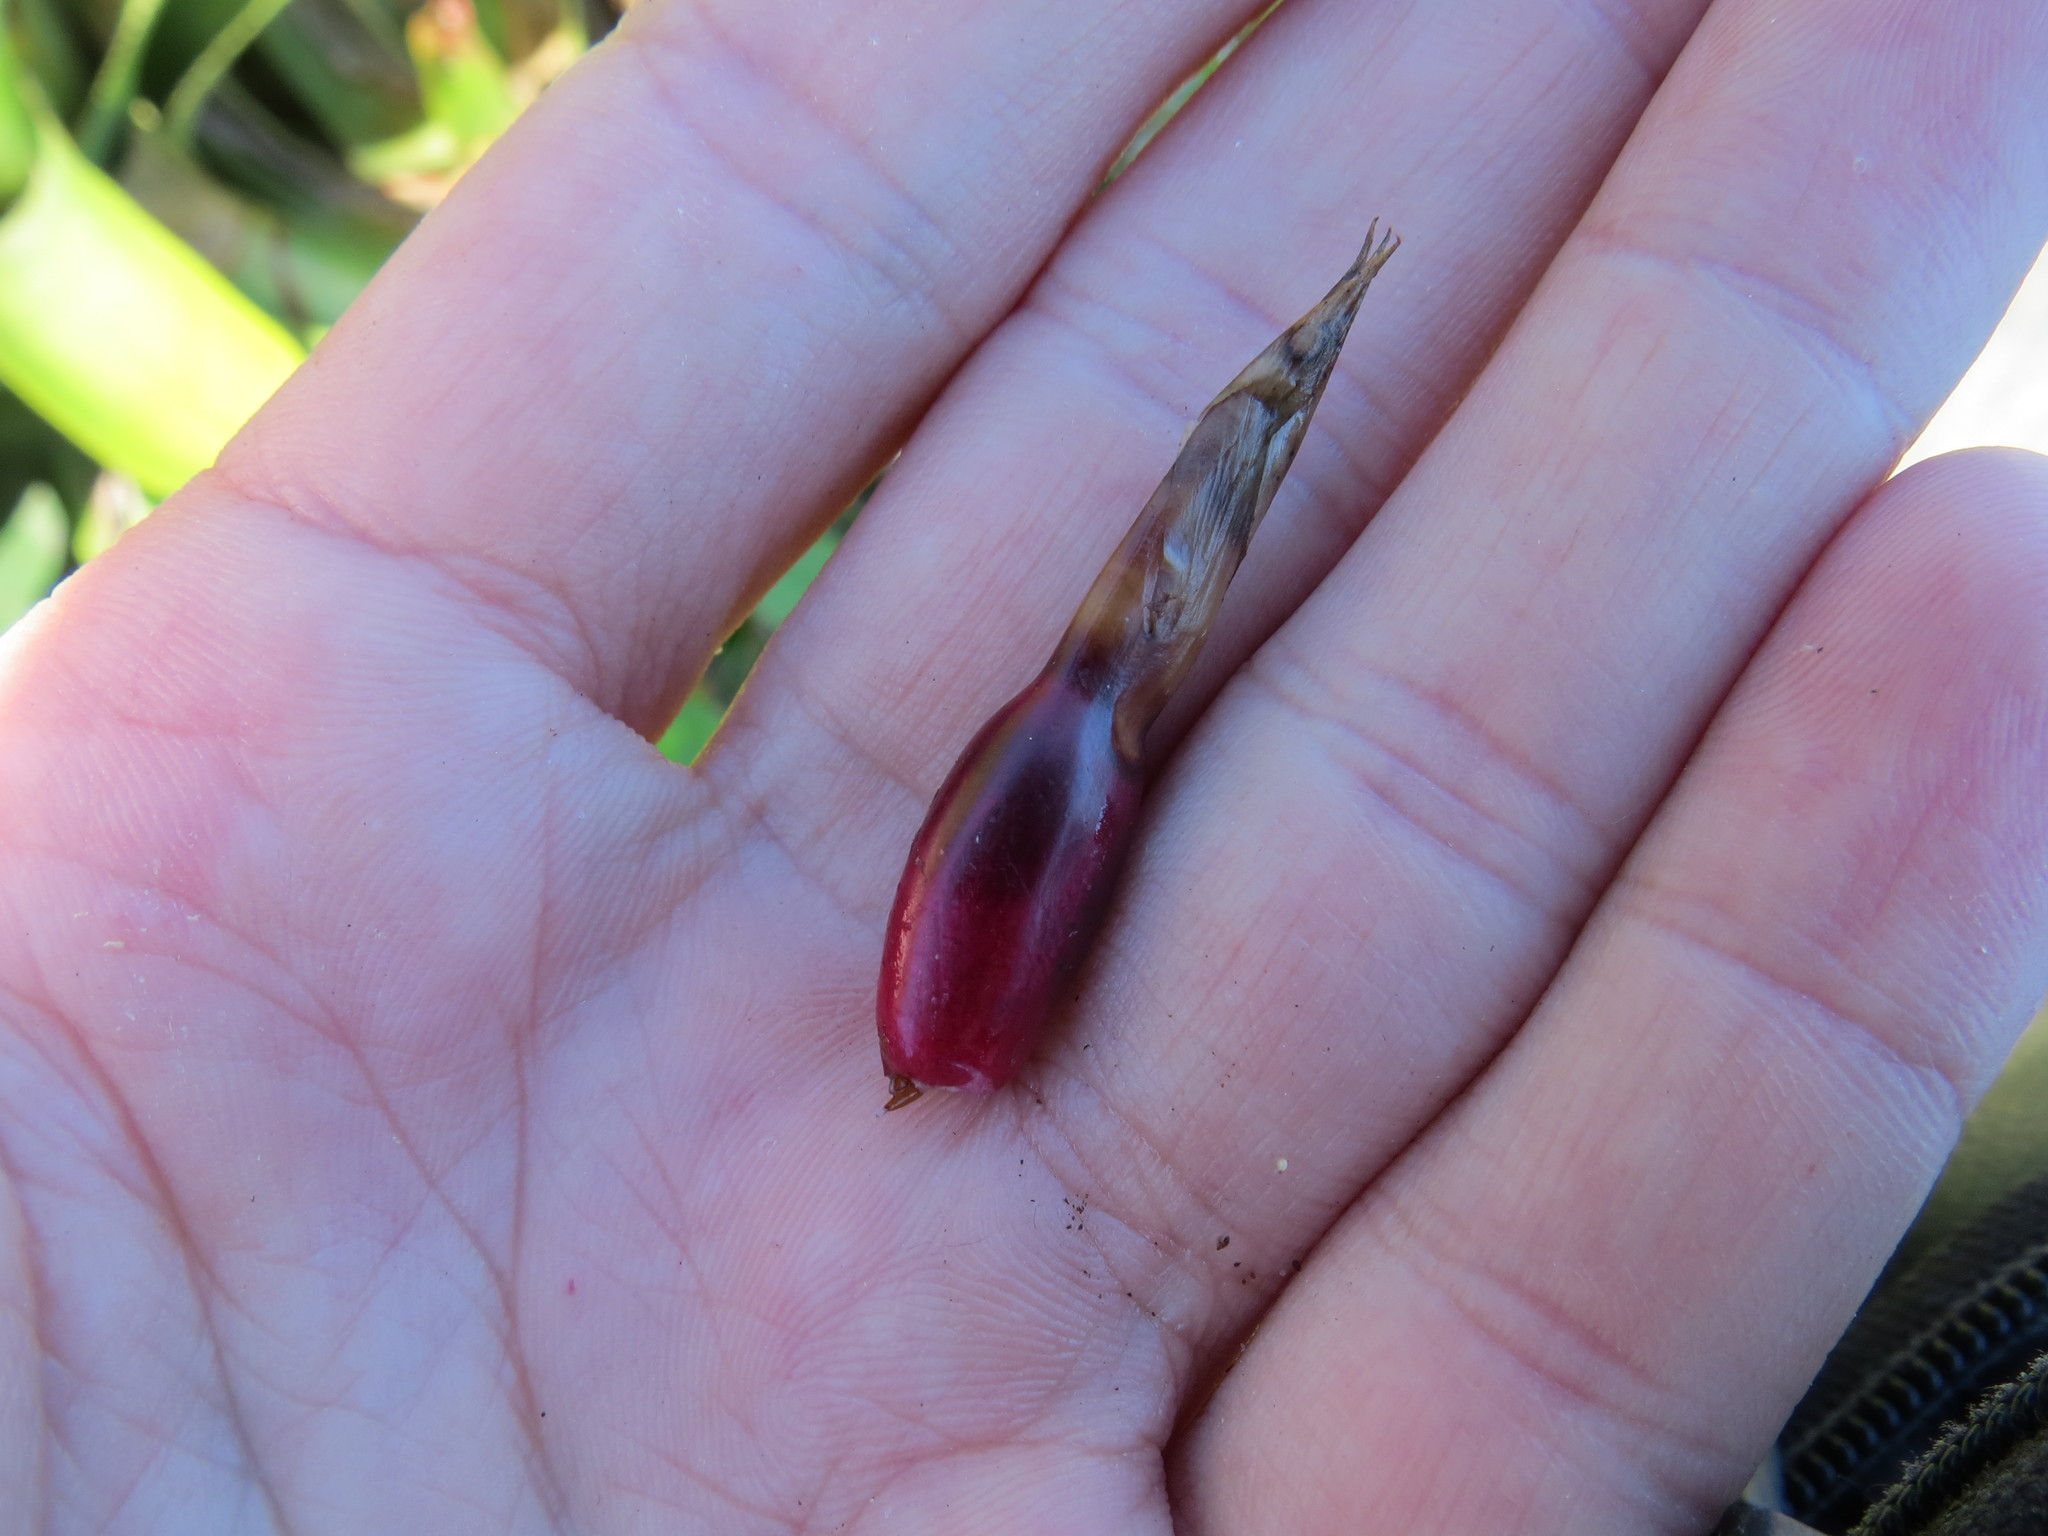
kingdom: Plantae
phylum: Tracheophyta
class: Liliopsida
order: Poales
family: Bromeliaceae
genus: Neoregelia
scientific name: Neoregelia cruenta
